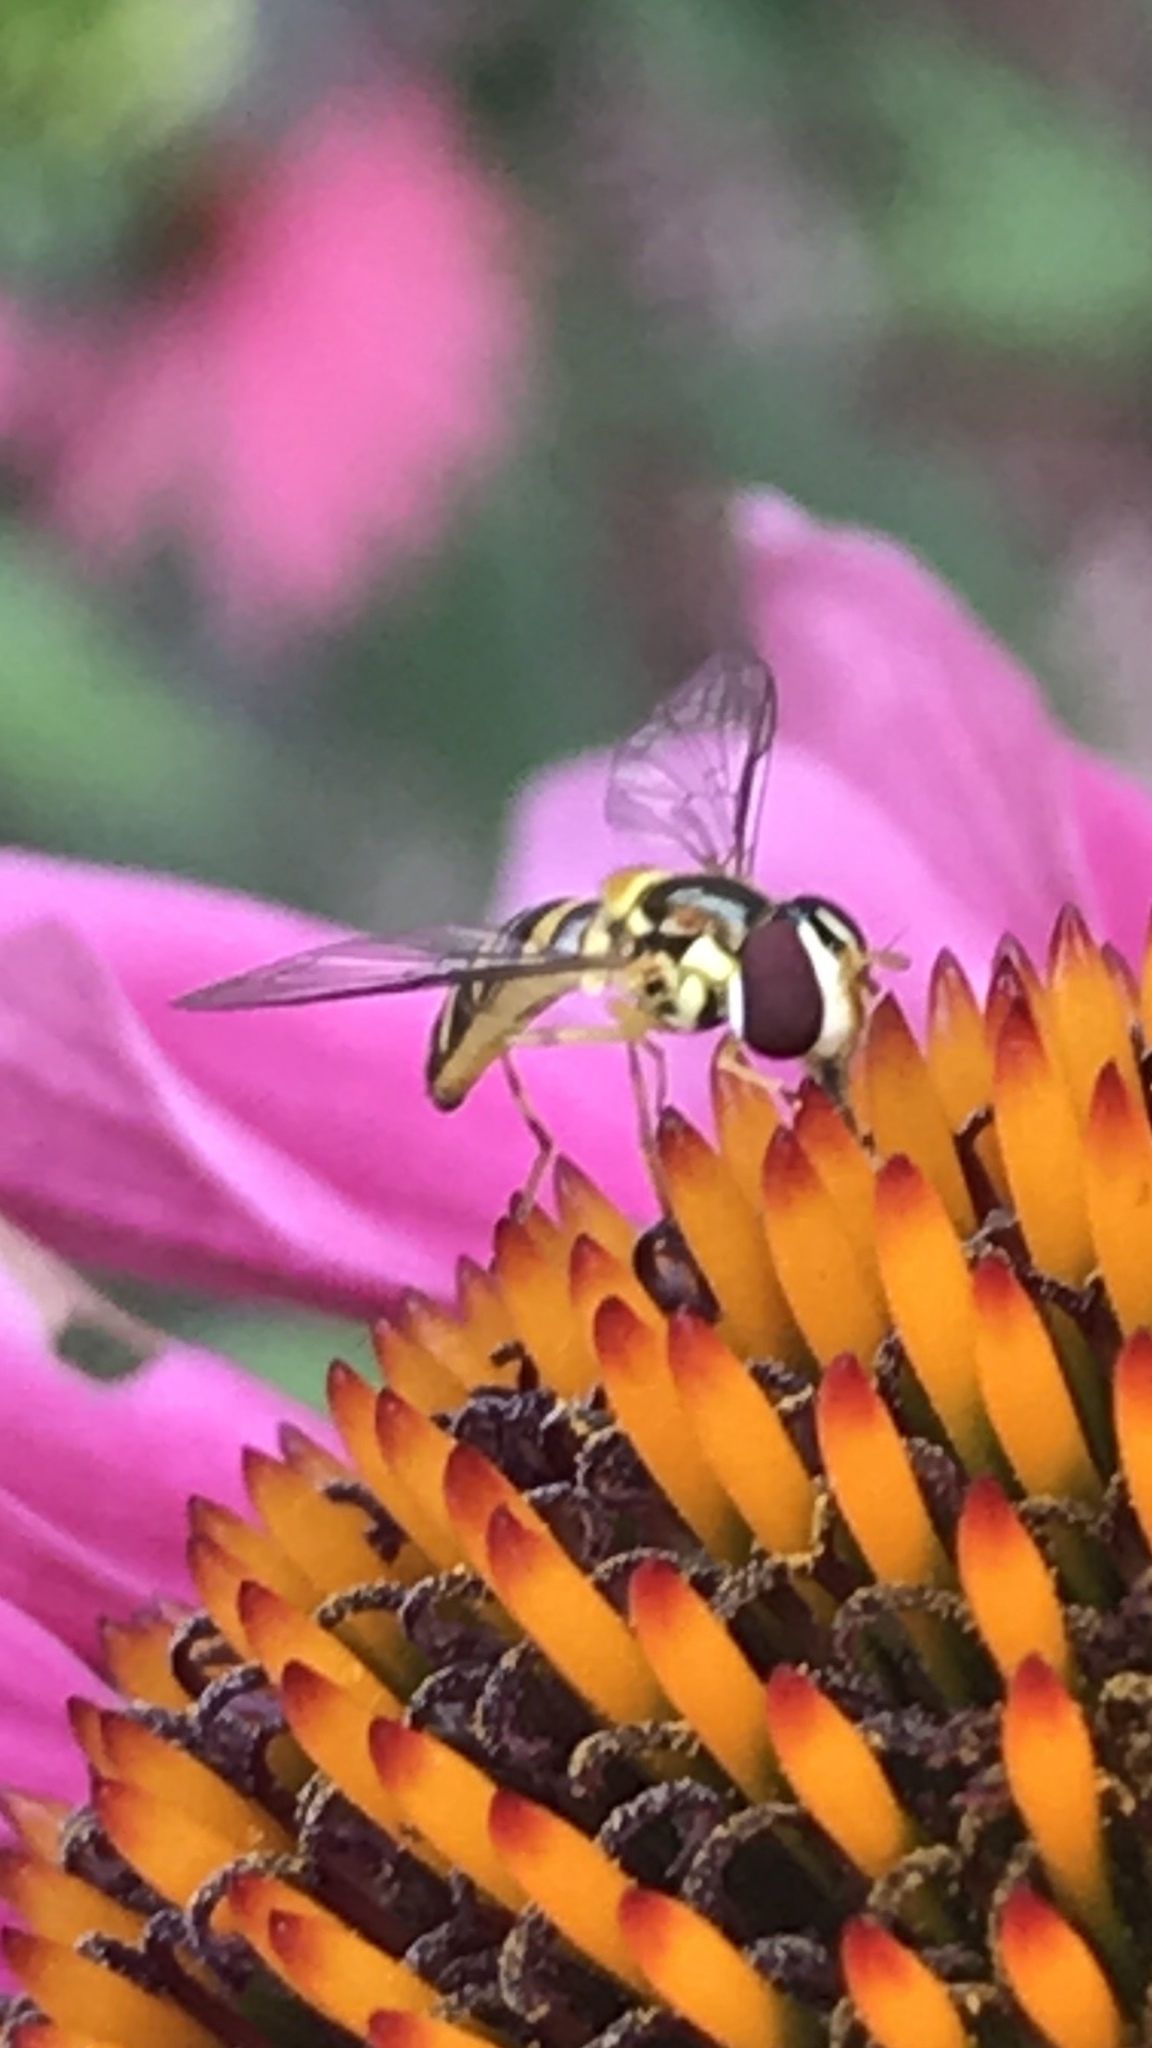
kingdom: Animalia
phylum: Arthropoda
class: Insecta
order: Diptera
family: Syrphidae
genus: Allograpta
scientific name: Allograpta obliqua
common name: Common oblique syrphid
